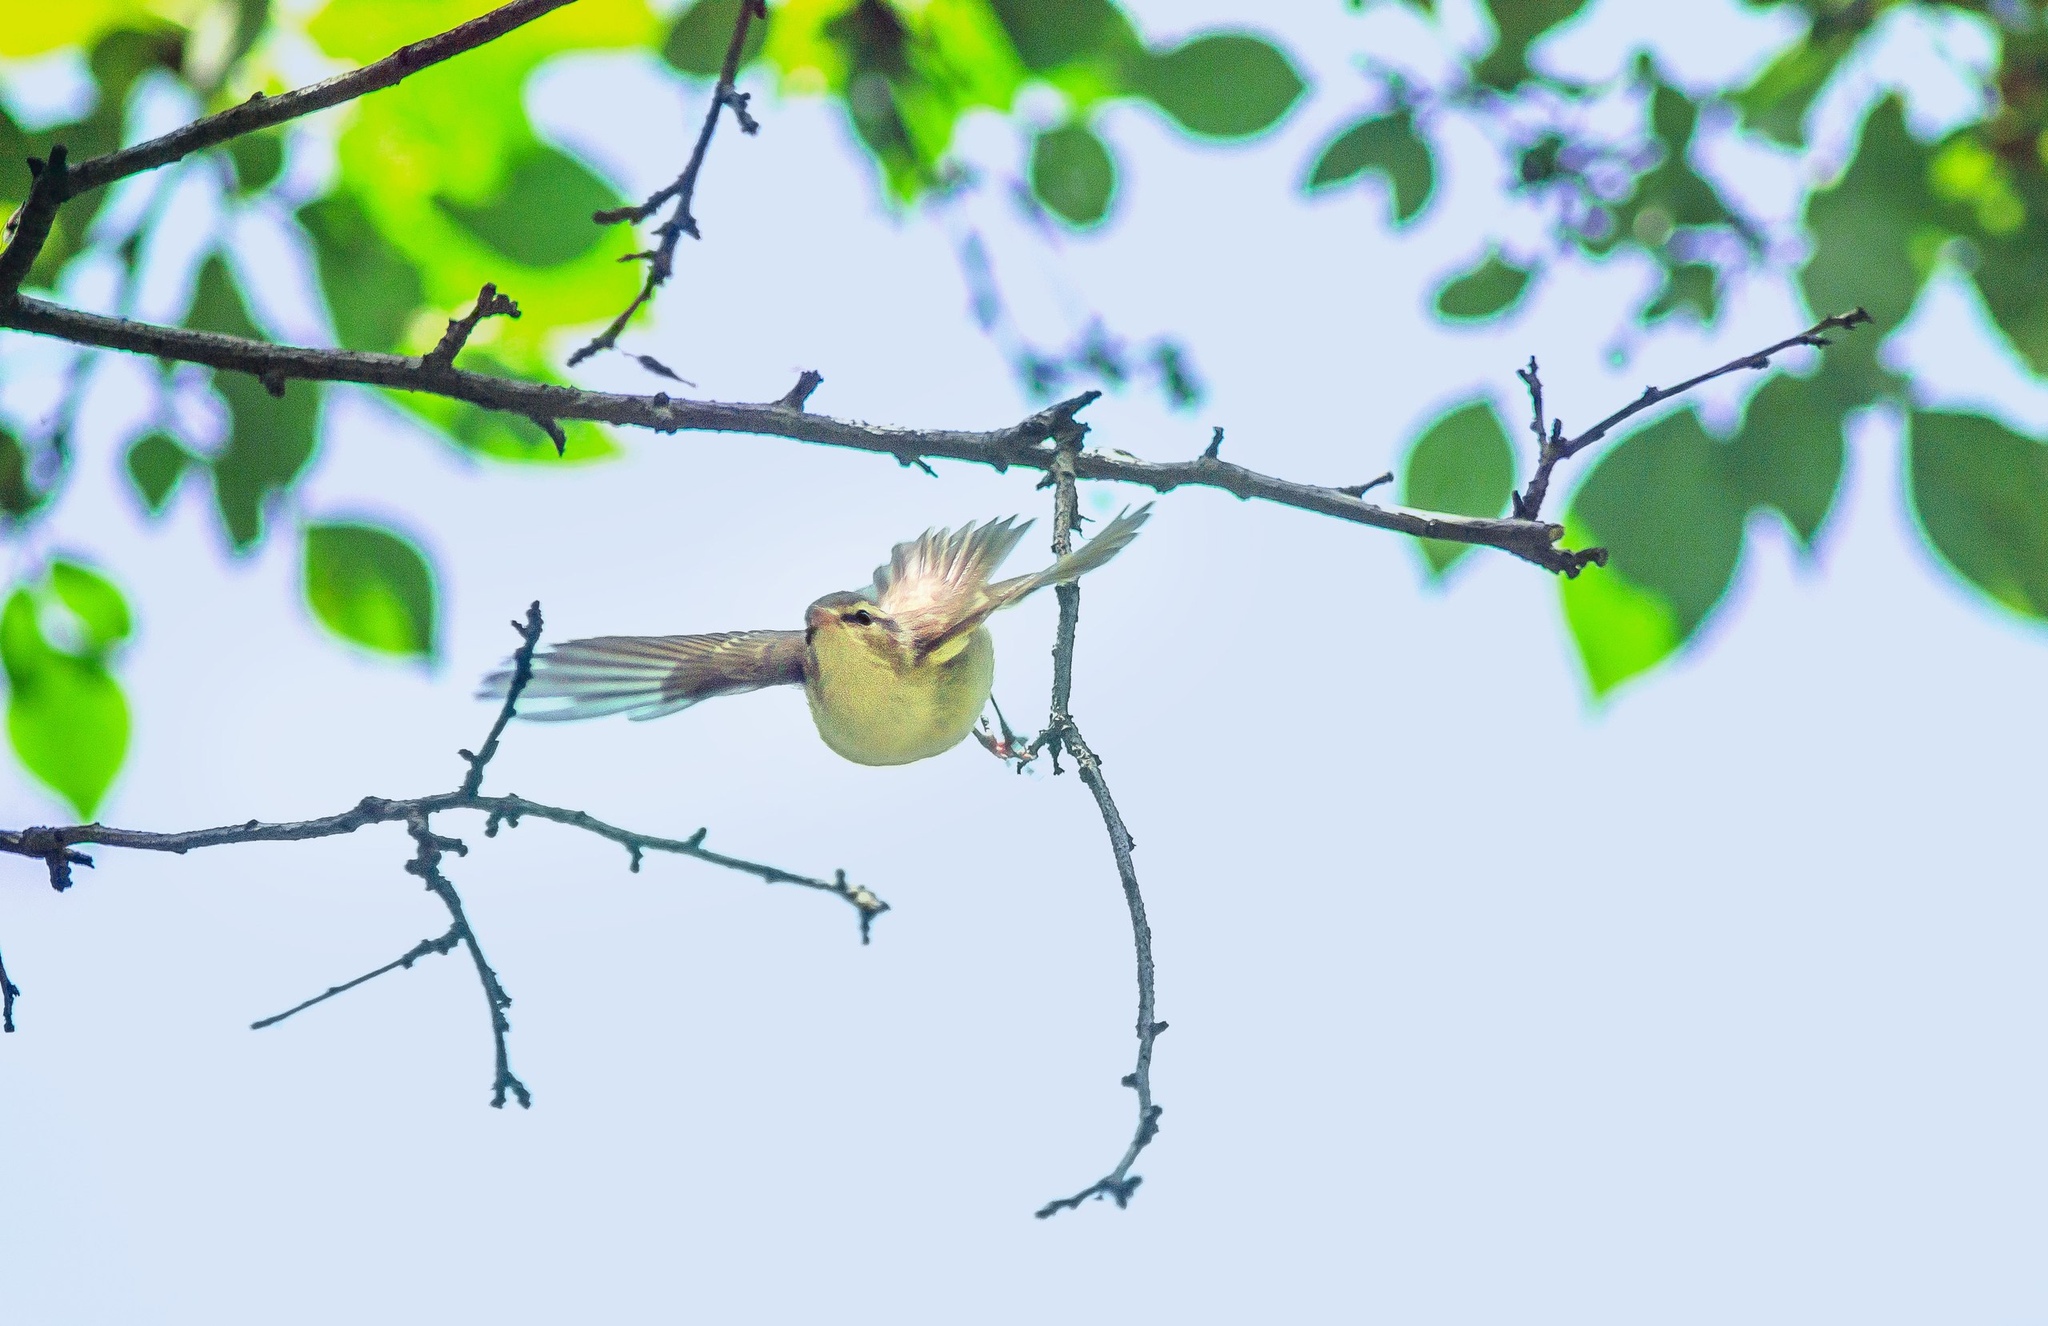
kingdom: Animalia
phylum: Chordata
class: Aves
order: Passeriformes
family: Phylloscopidae
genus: Phylloscopus
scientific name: Phylloscopus trochiloides
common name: Greenish warbler
